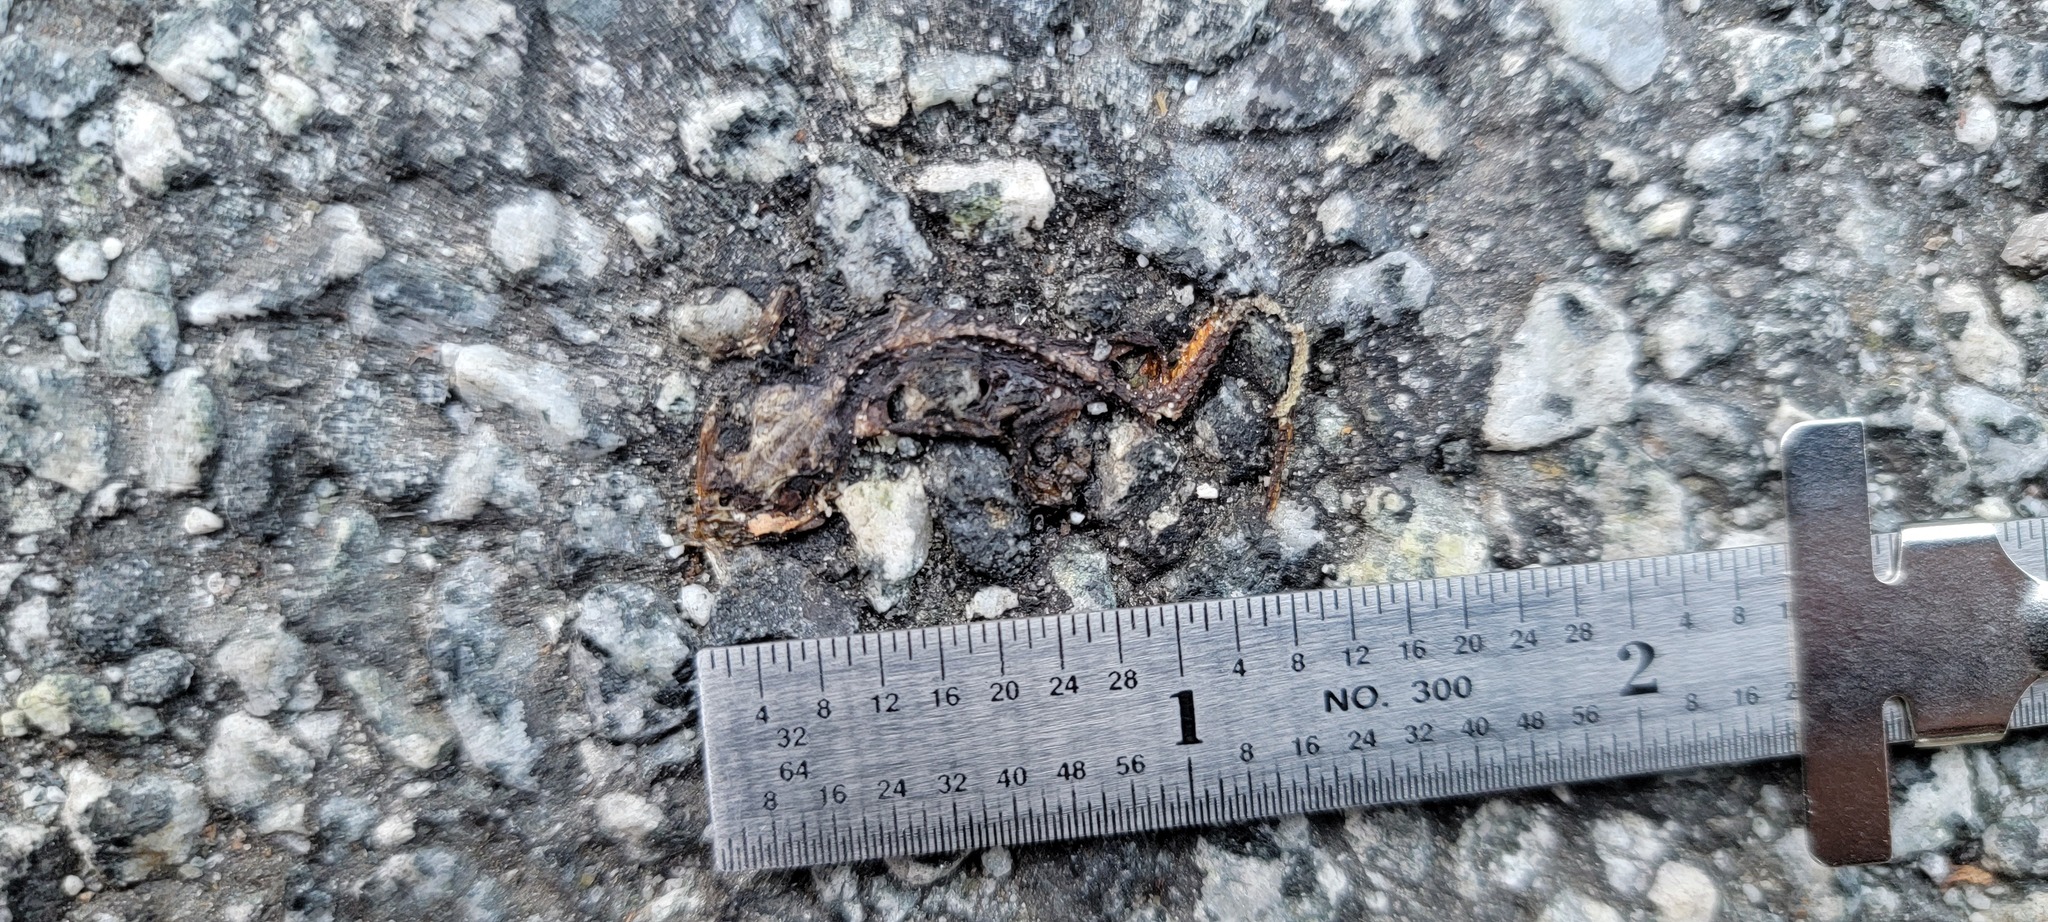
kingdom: Animalia
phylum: Chordata
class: Amphibia
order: Caudata
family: Salamandridae
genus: Taricha
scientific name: Taricha
